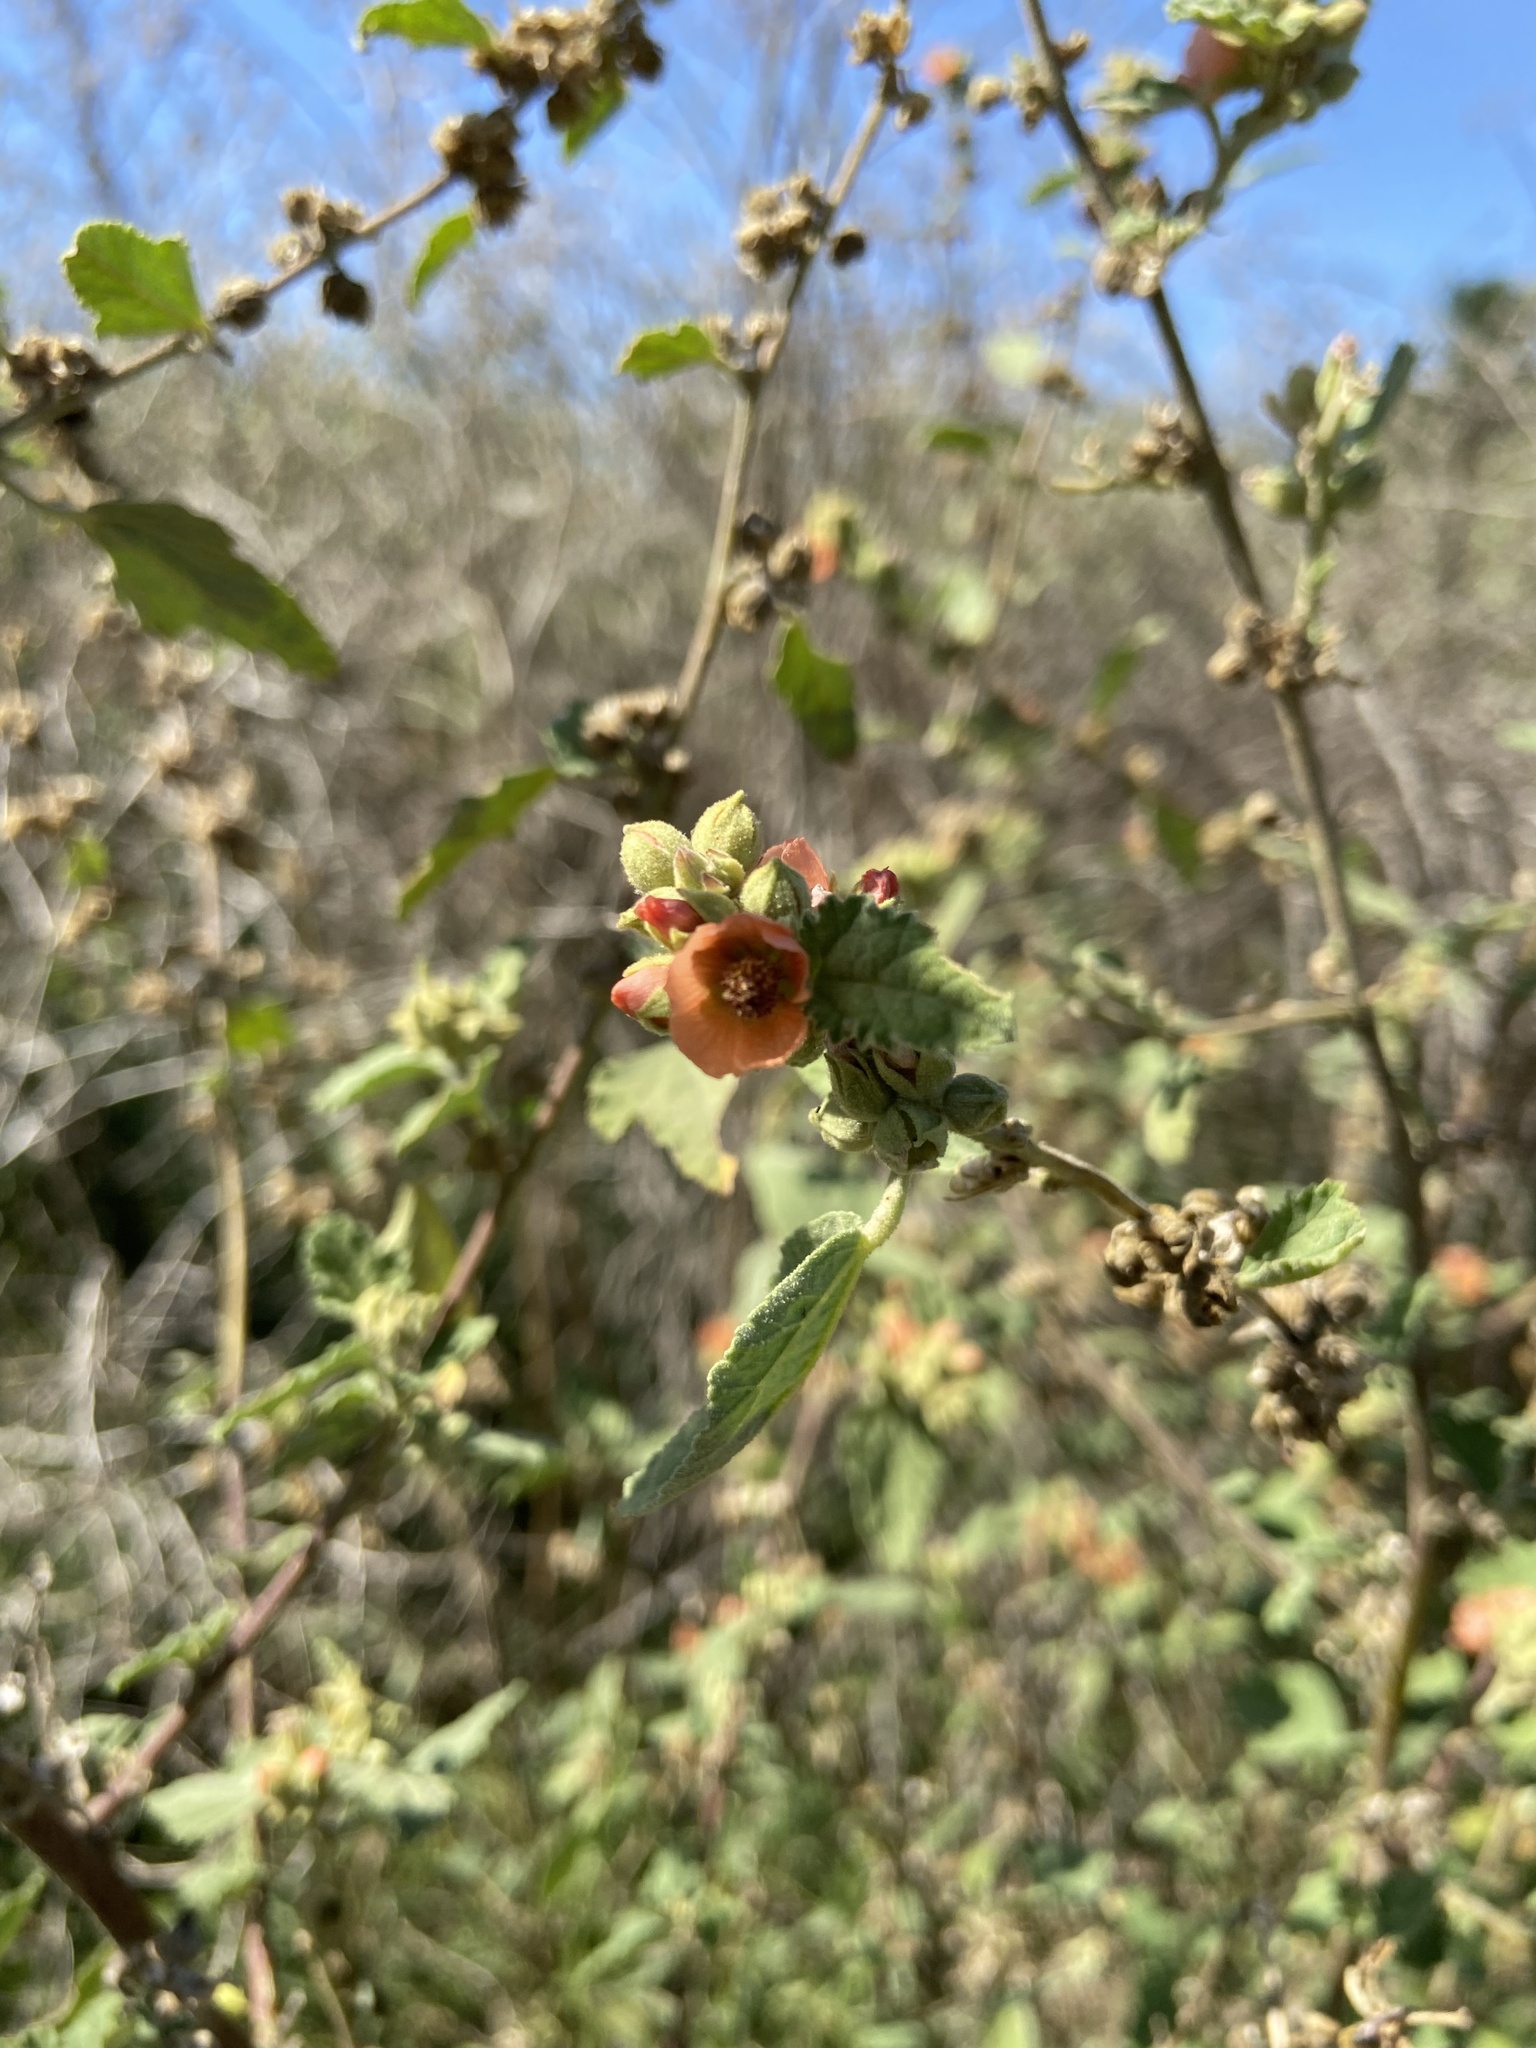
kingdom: Plantae
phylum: Tracheophyta
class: Magnoliopsida
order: Malvales
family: Malvaceae
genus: Sphaeralcea
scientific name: Sphaeralcea bonariensis
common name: Latin globemallow
